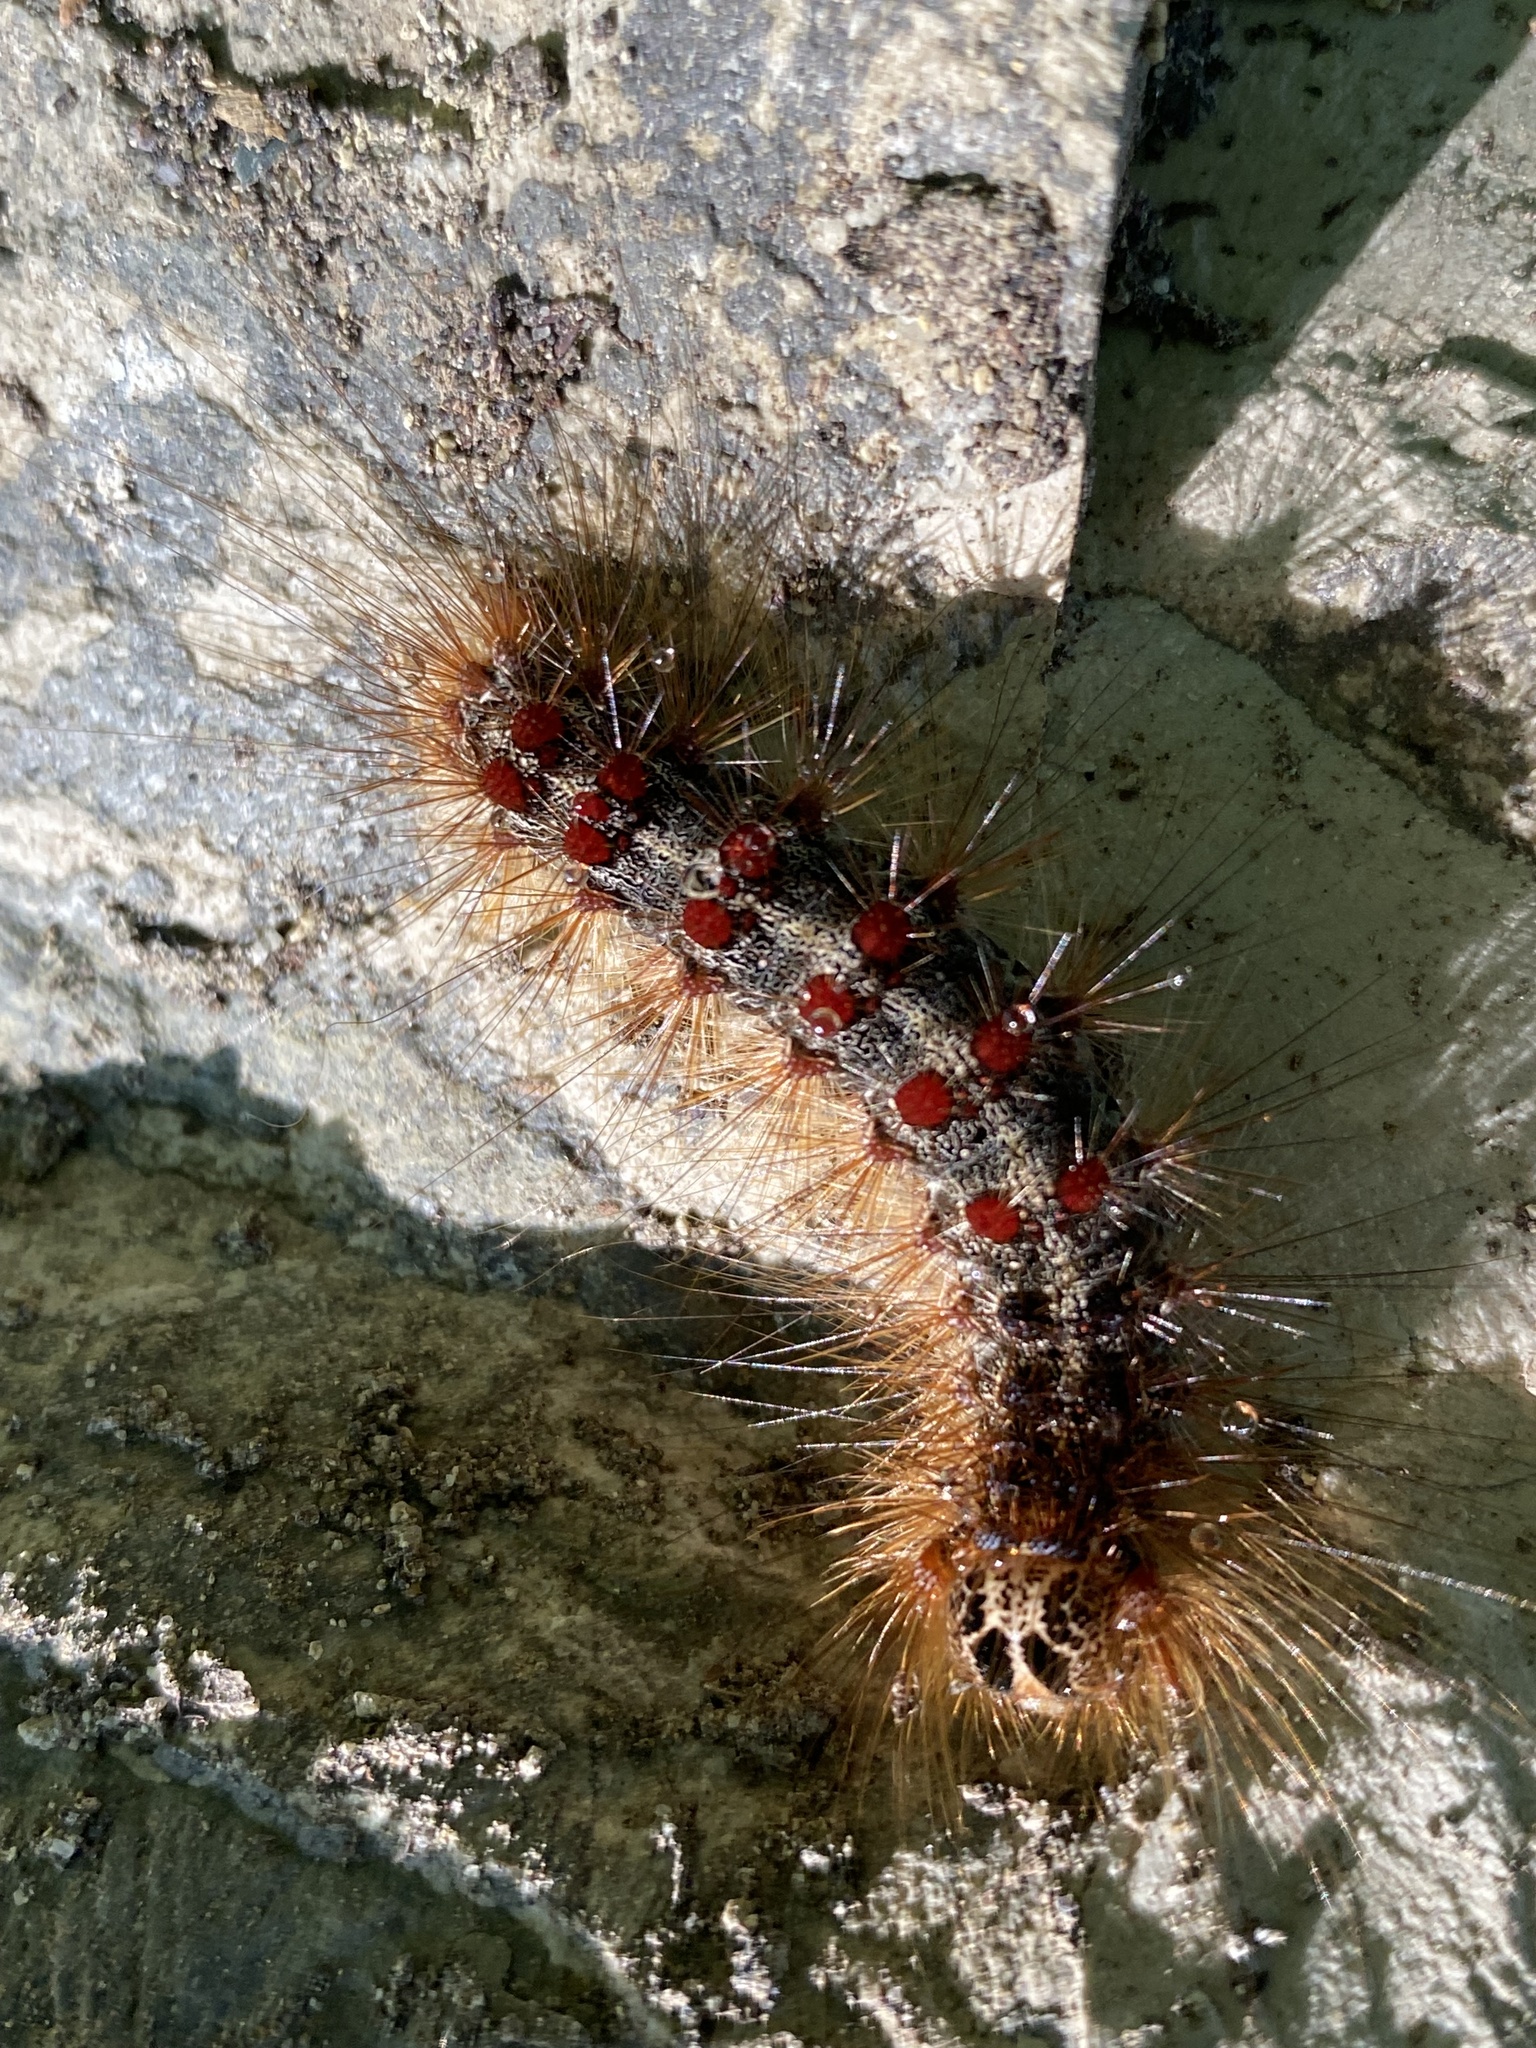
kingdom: Animalia
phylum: Arthropoda
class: Insecta
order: Lepidoptera
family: Erebidae
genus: Lymantria
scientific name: Lymantria dispar
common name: Gypsy moth
